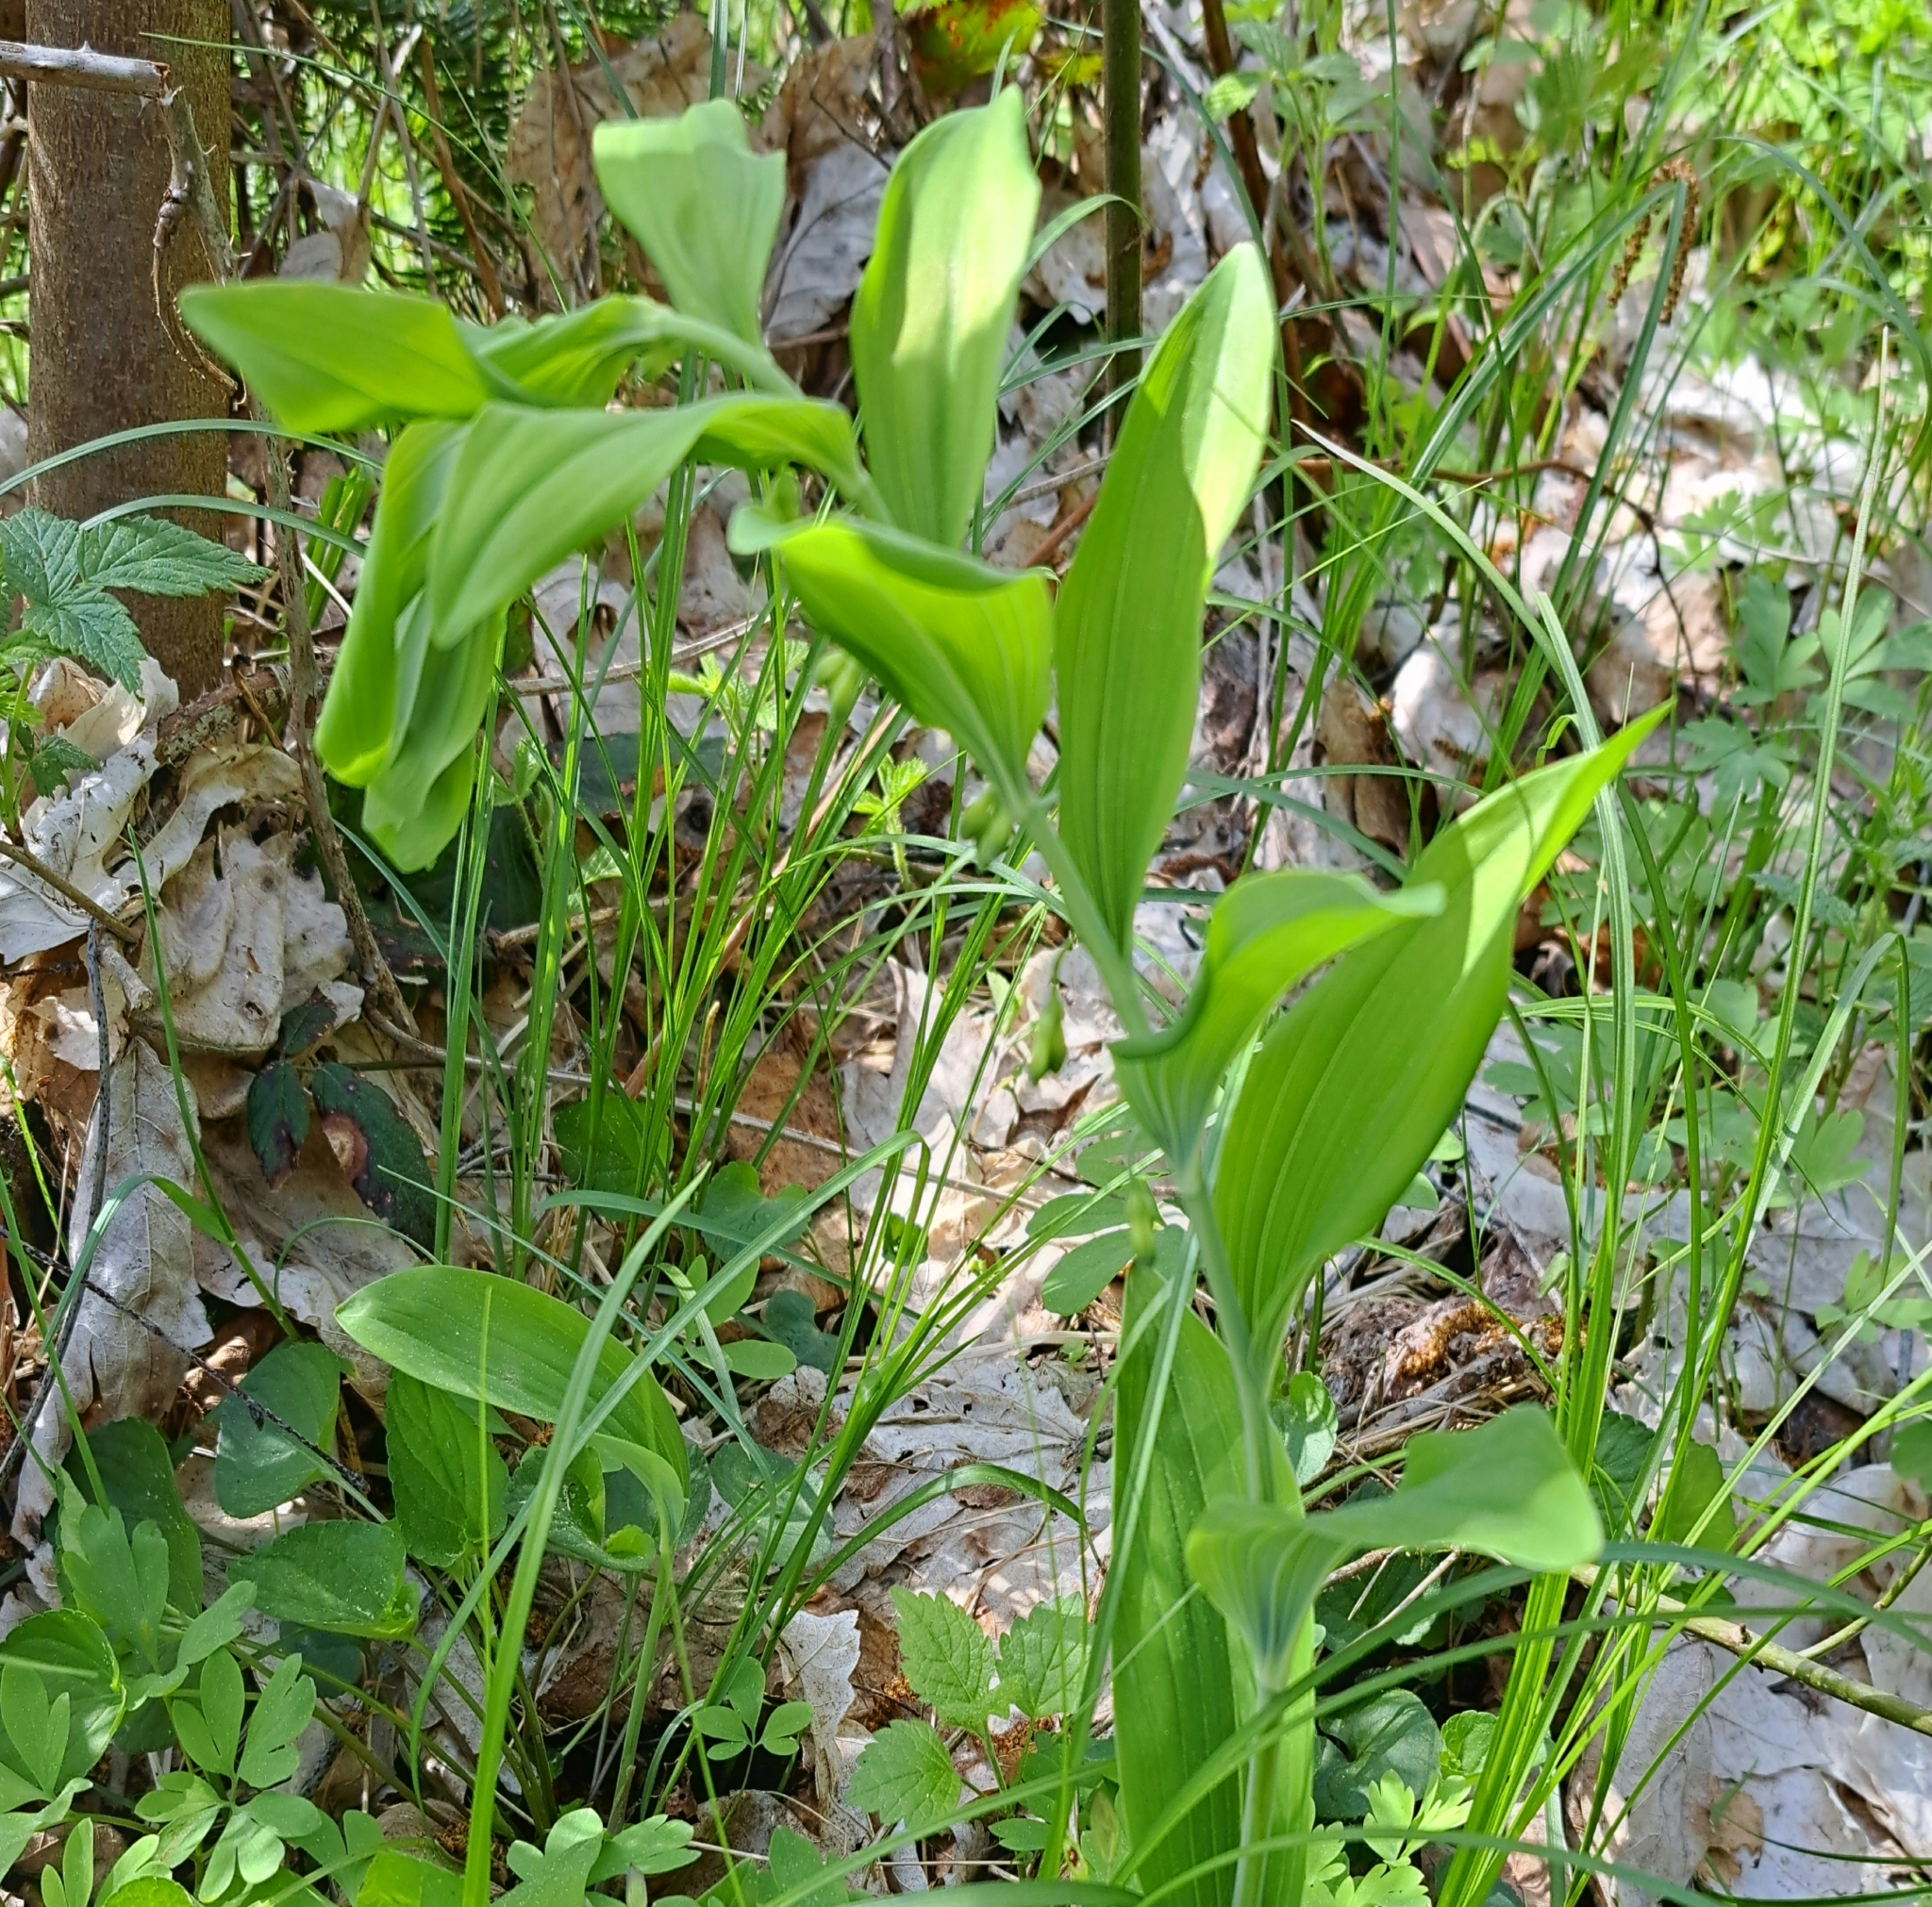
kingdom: Plantae
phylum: Tracheophyta
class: Liliopsida
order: Asparagales
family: Asparagaceae
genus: Polygonatum
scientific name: Polygonatum multiflorum
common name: Solomon's-seal
